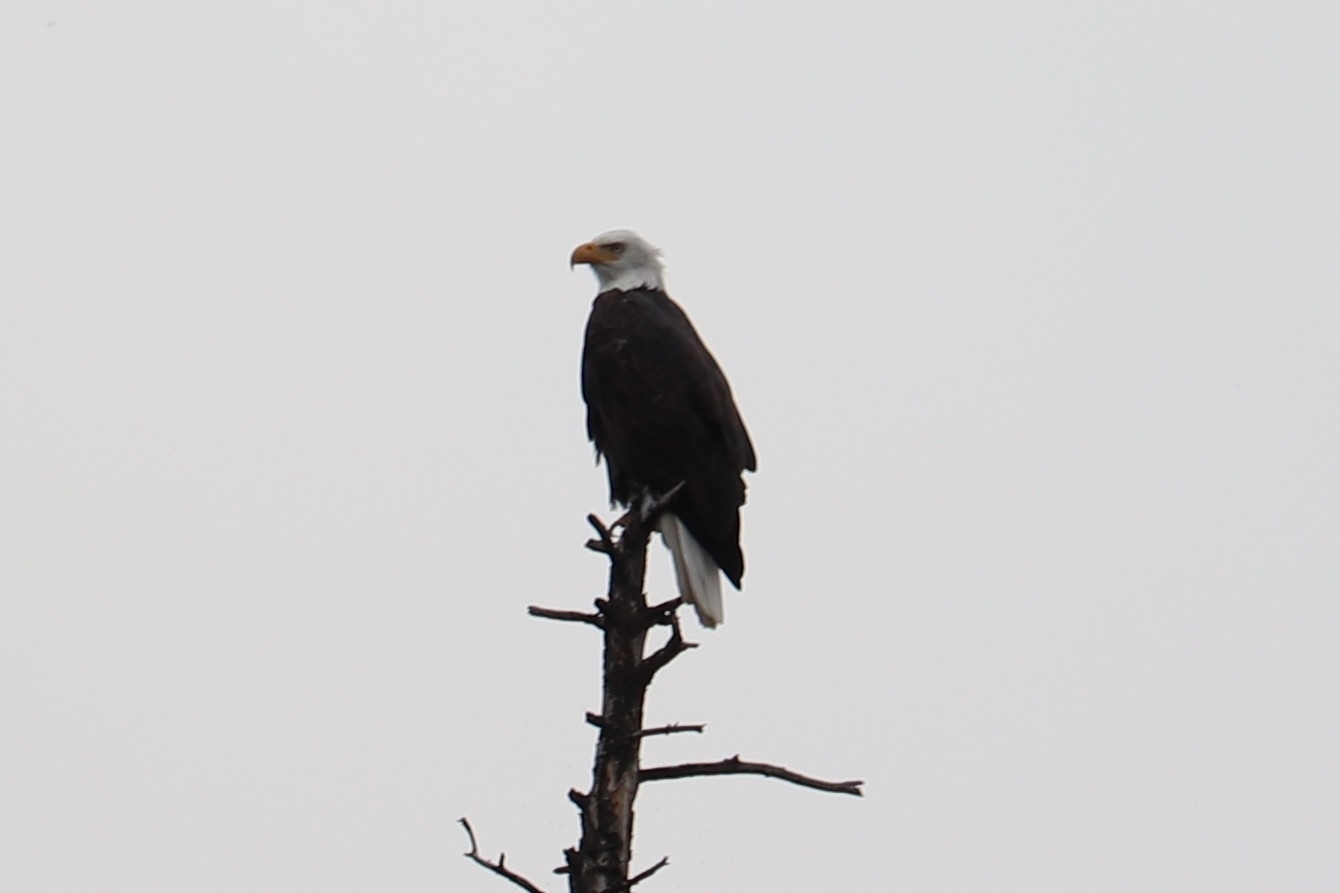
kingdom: Animalia
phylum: Chordata
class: Aves
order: Accipitriformes
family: Accipitridae
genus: Haliaeetus
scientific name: Haliaeetus leucocephalus
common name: Bald eagle
